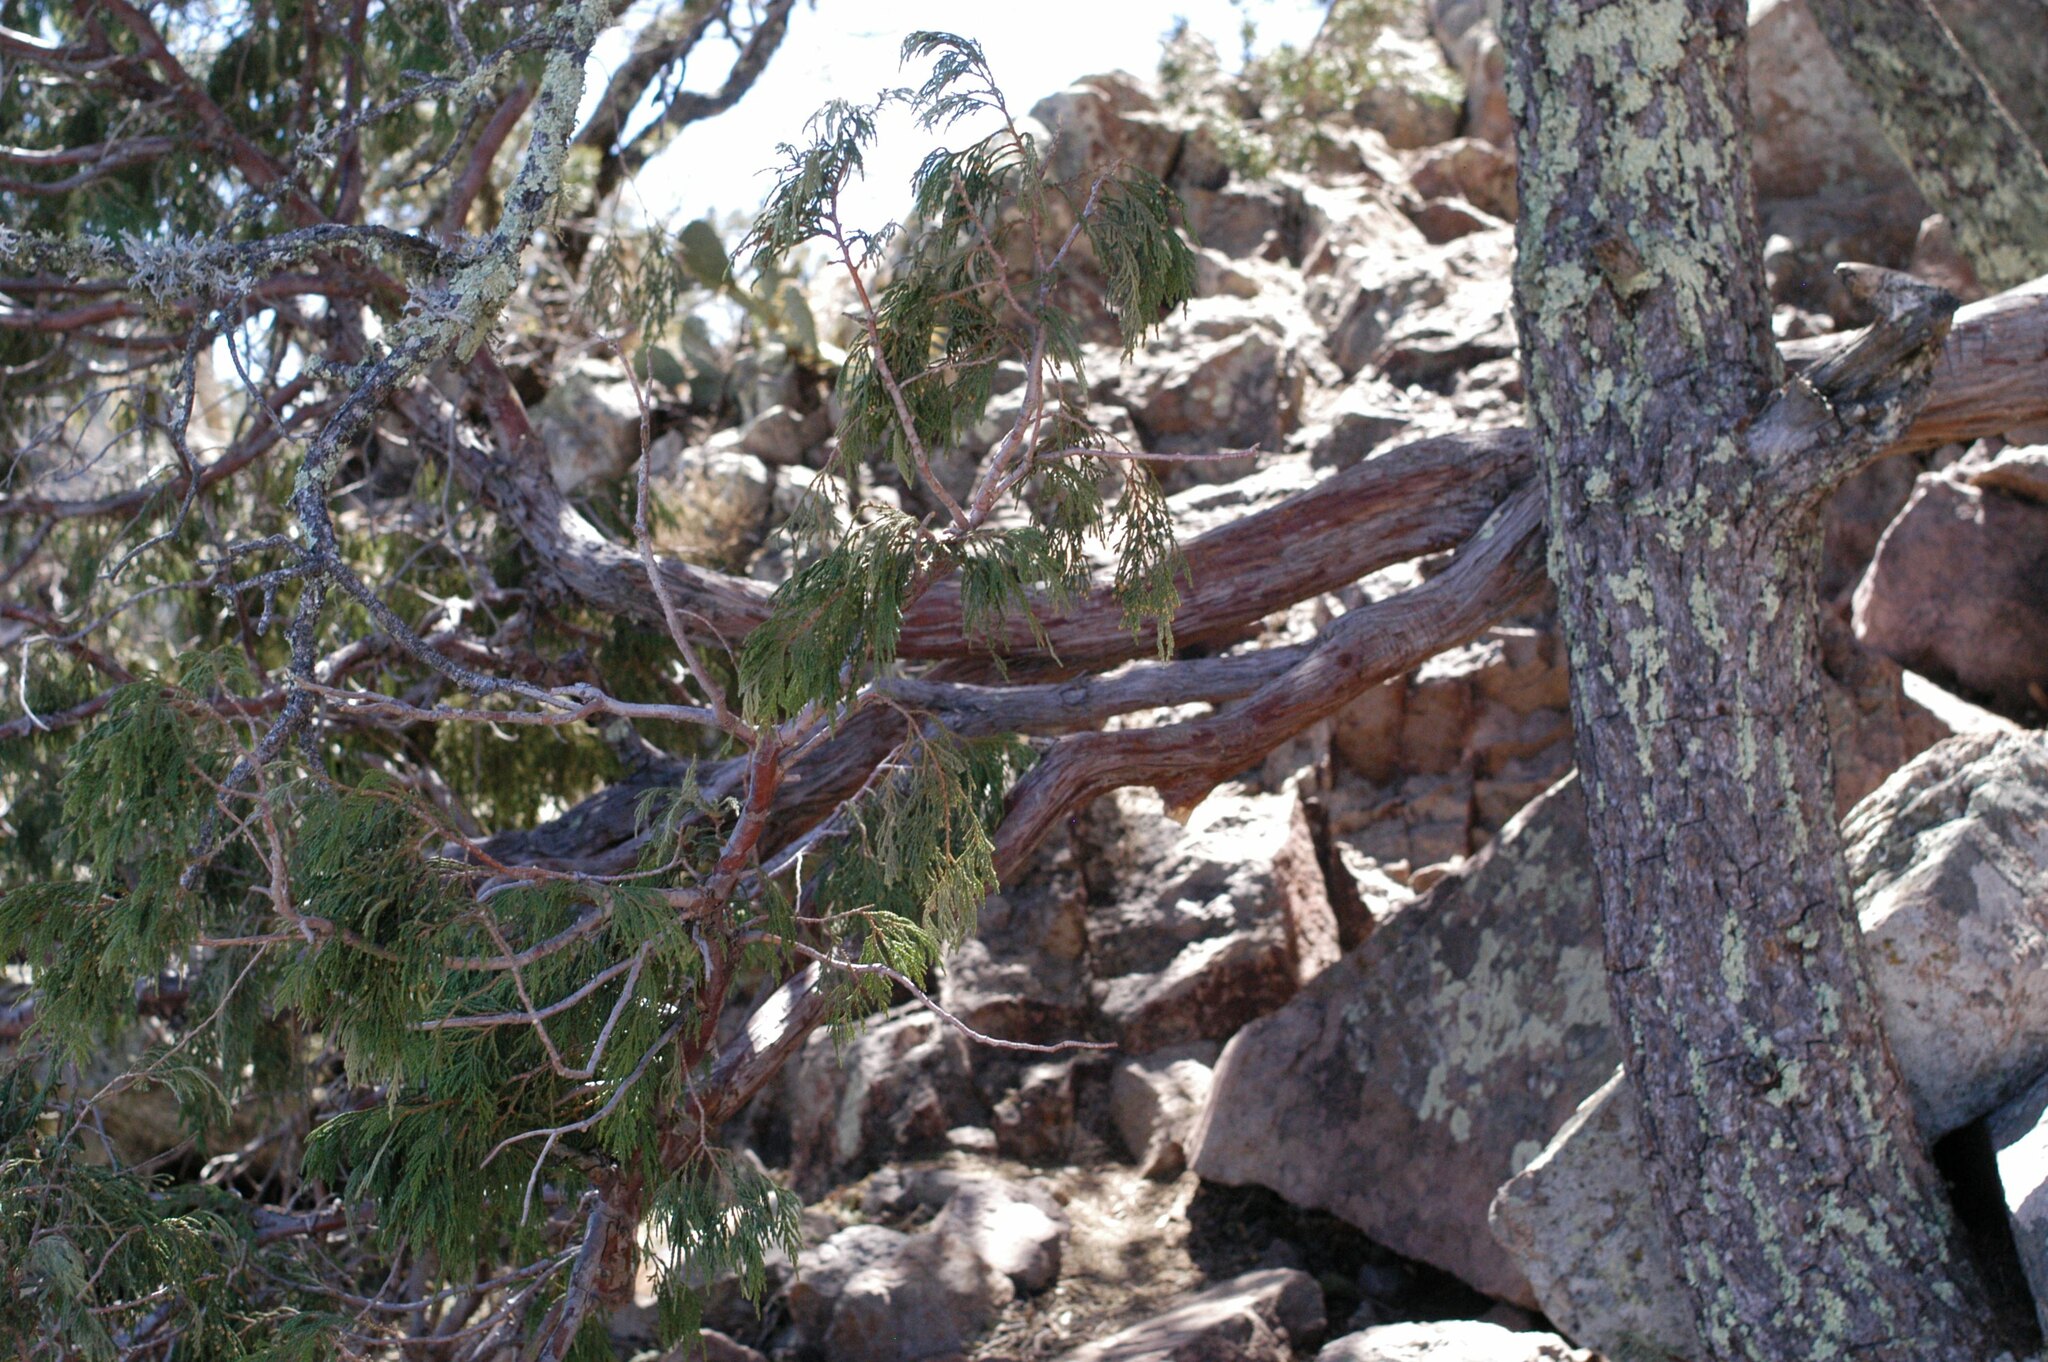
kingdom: Plantae
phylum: Tracheophyta
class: Pinopsida
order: Pinales
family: Cupressaceae
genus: Juniperus
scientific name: Juniperus flaccida
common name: Drooping juniper
